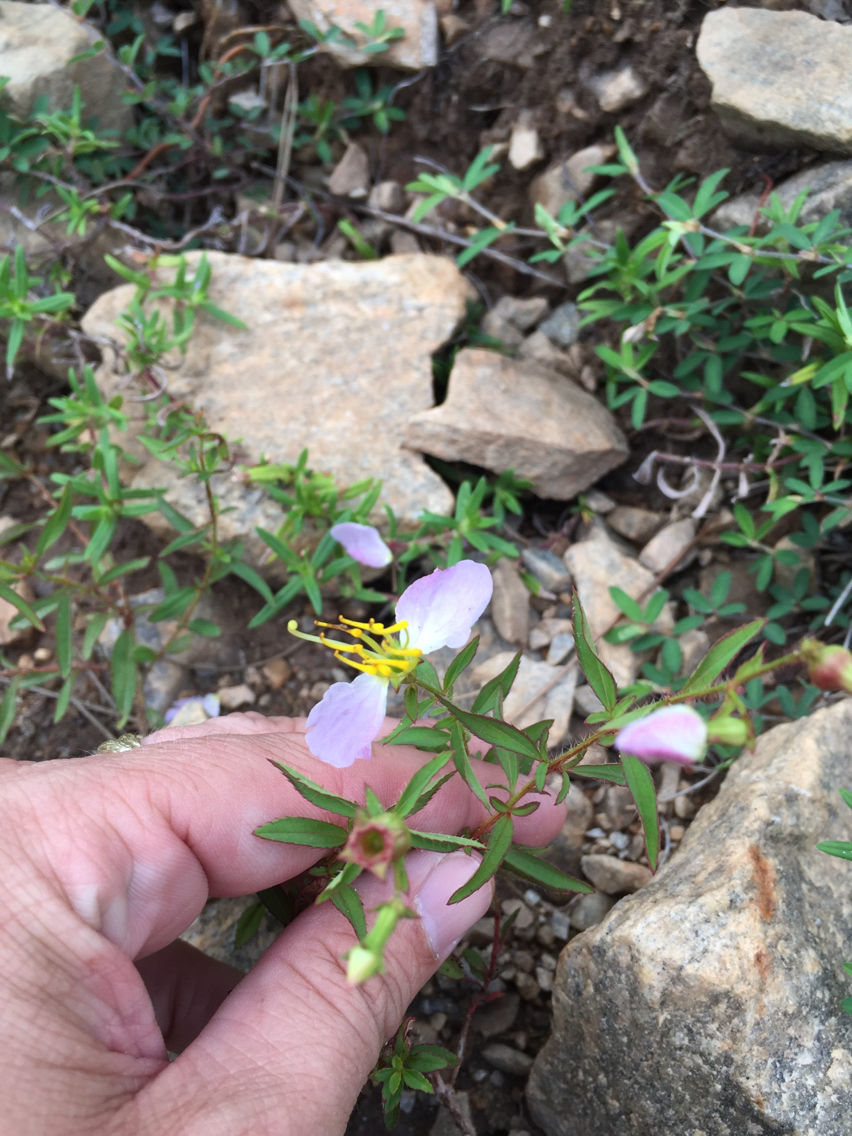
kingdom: Plantae
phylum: Tracheophyta
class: Magnoliopsida
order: Myrtales
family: Melastomataceae
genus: Rhexia
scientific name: Rhexia mariana
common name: Dull meadow-pitcher
